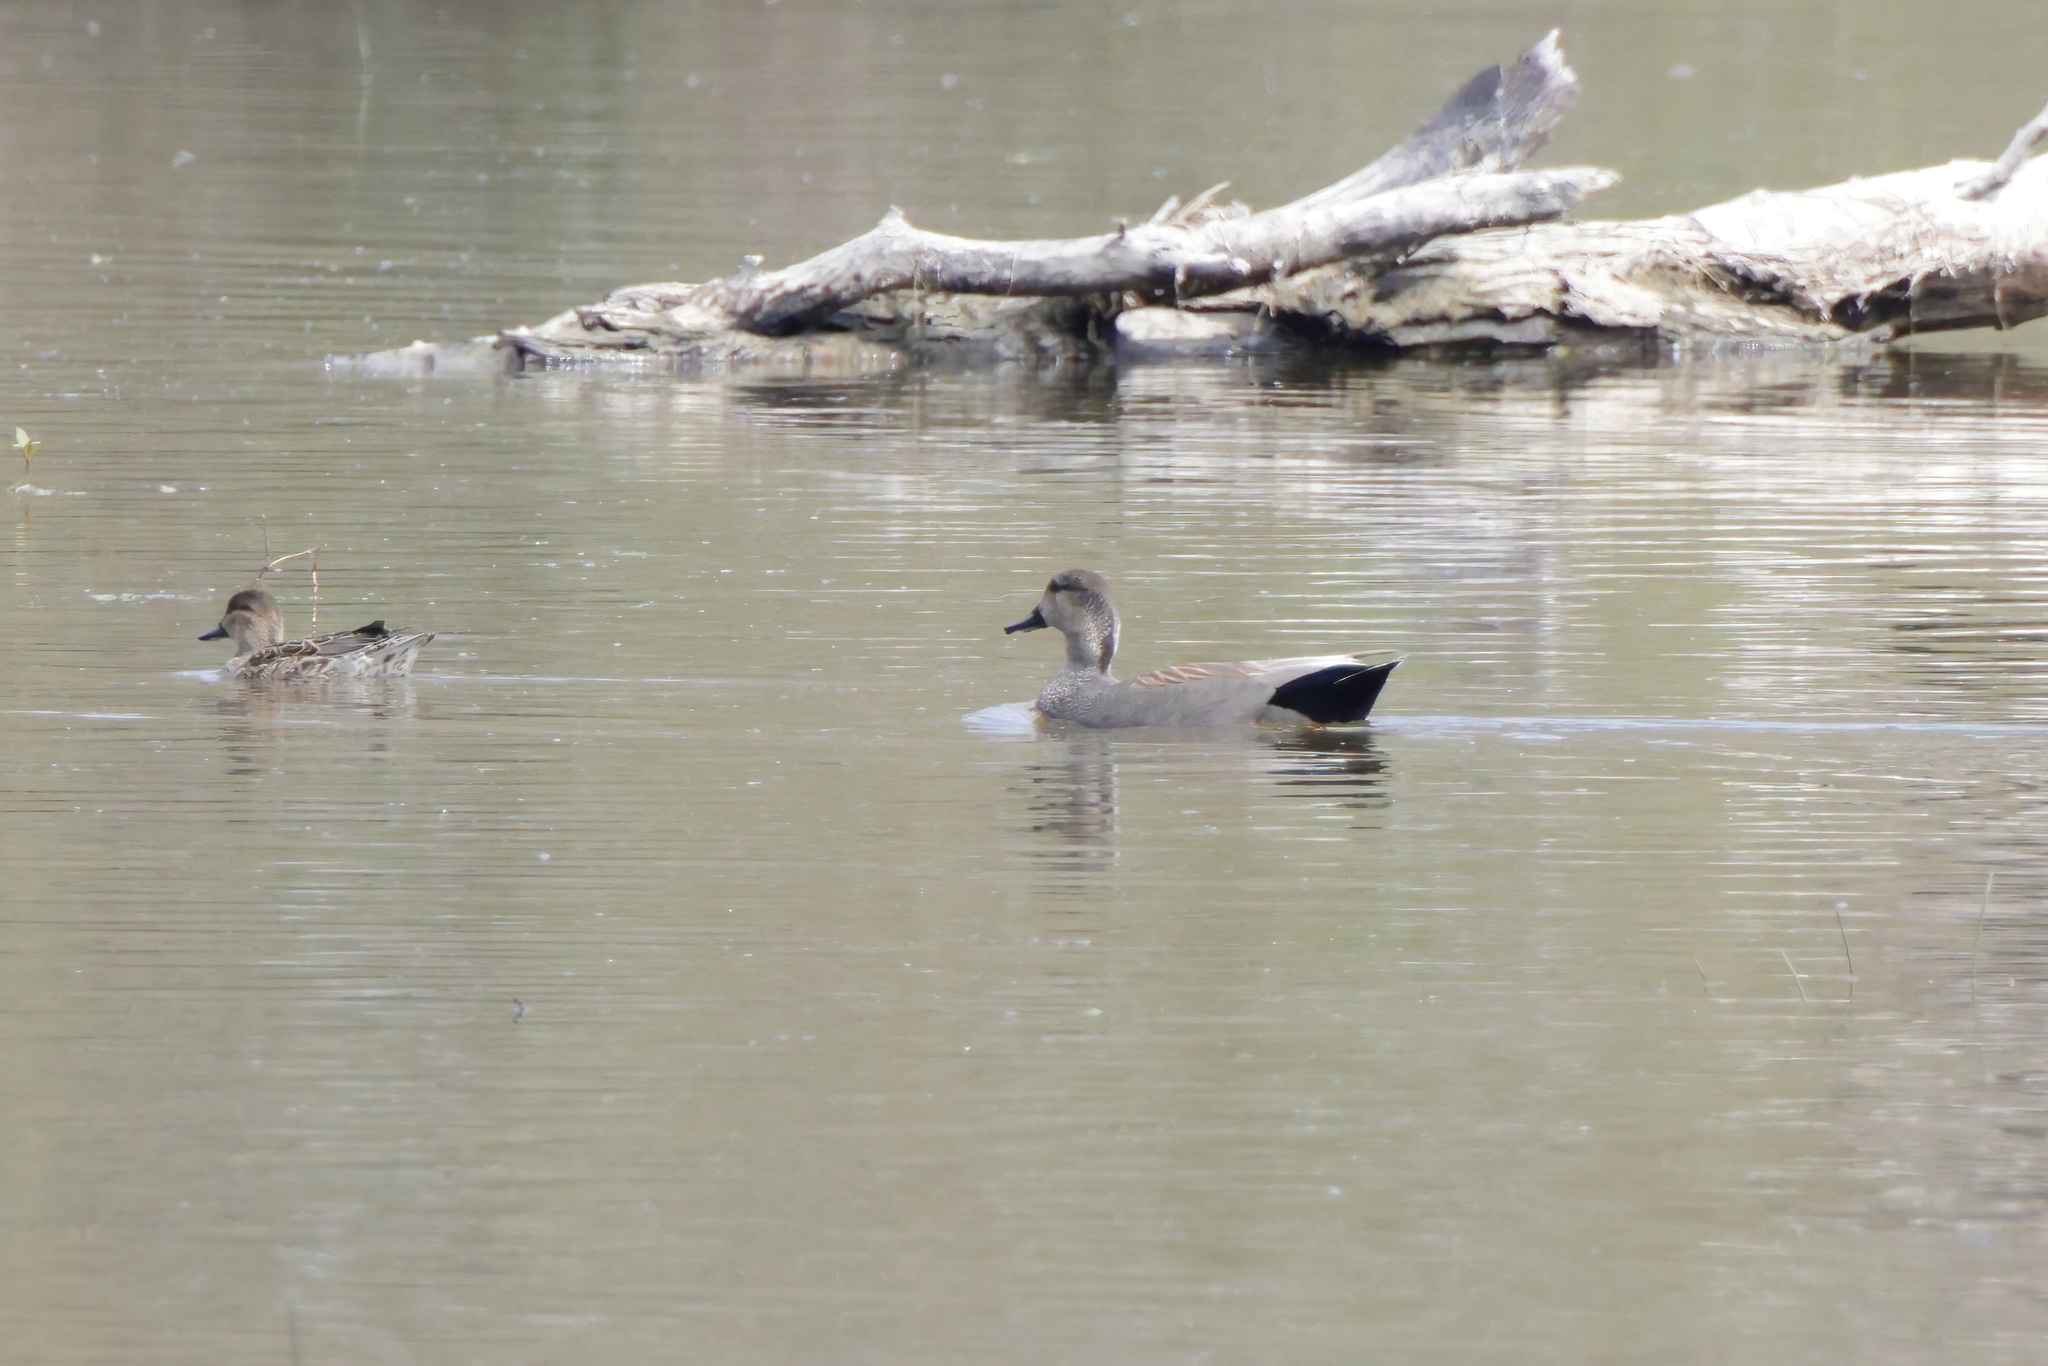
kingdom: Animalia
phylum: Chordata
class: Aves
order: Anseriformes
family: Anatidae
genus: Mareca
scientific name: Mareca strepera
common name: Gadwall
